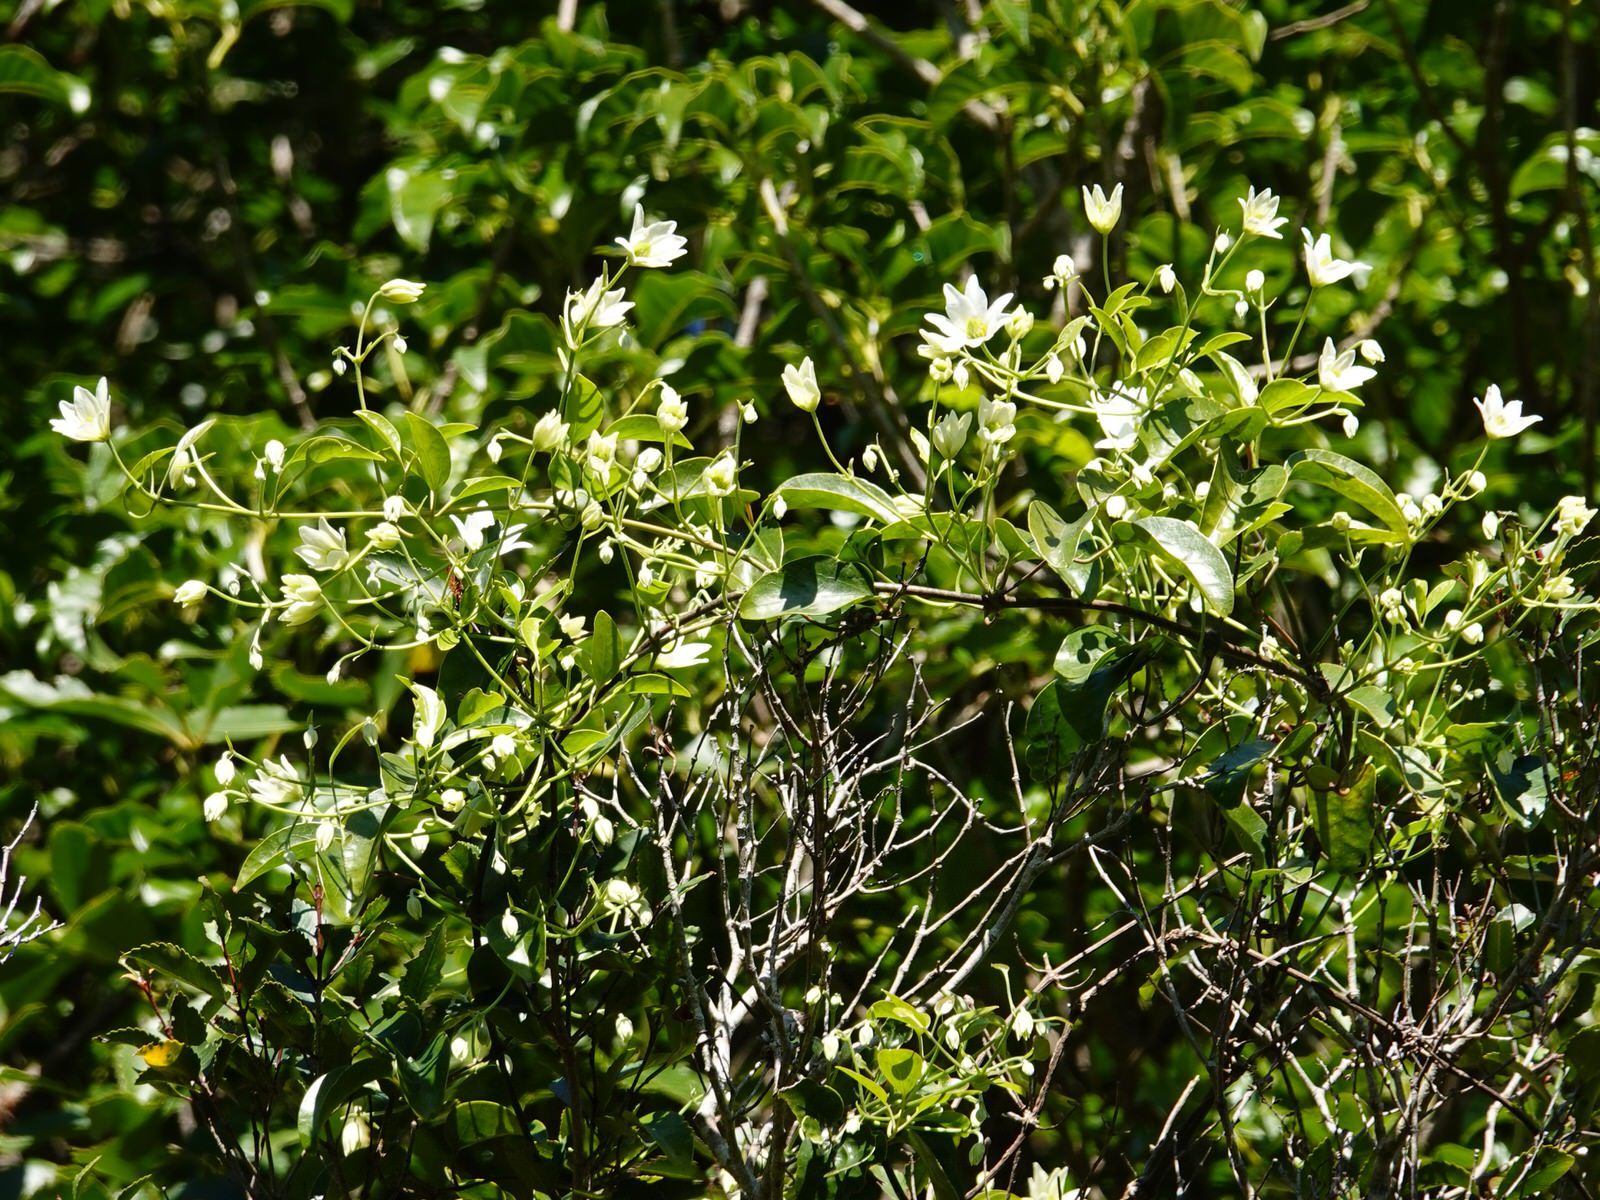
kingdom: Plantae
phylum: Tracheophyta
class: Magnoliopsida
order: Ranunculales
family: Ranunculaceae
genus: Clematis
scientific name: Clematis paniculata
